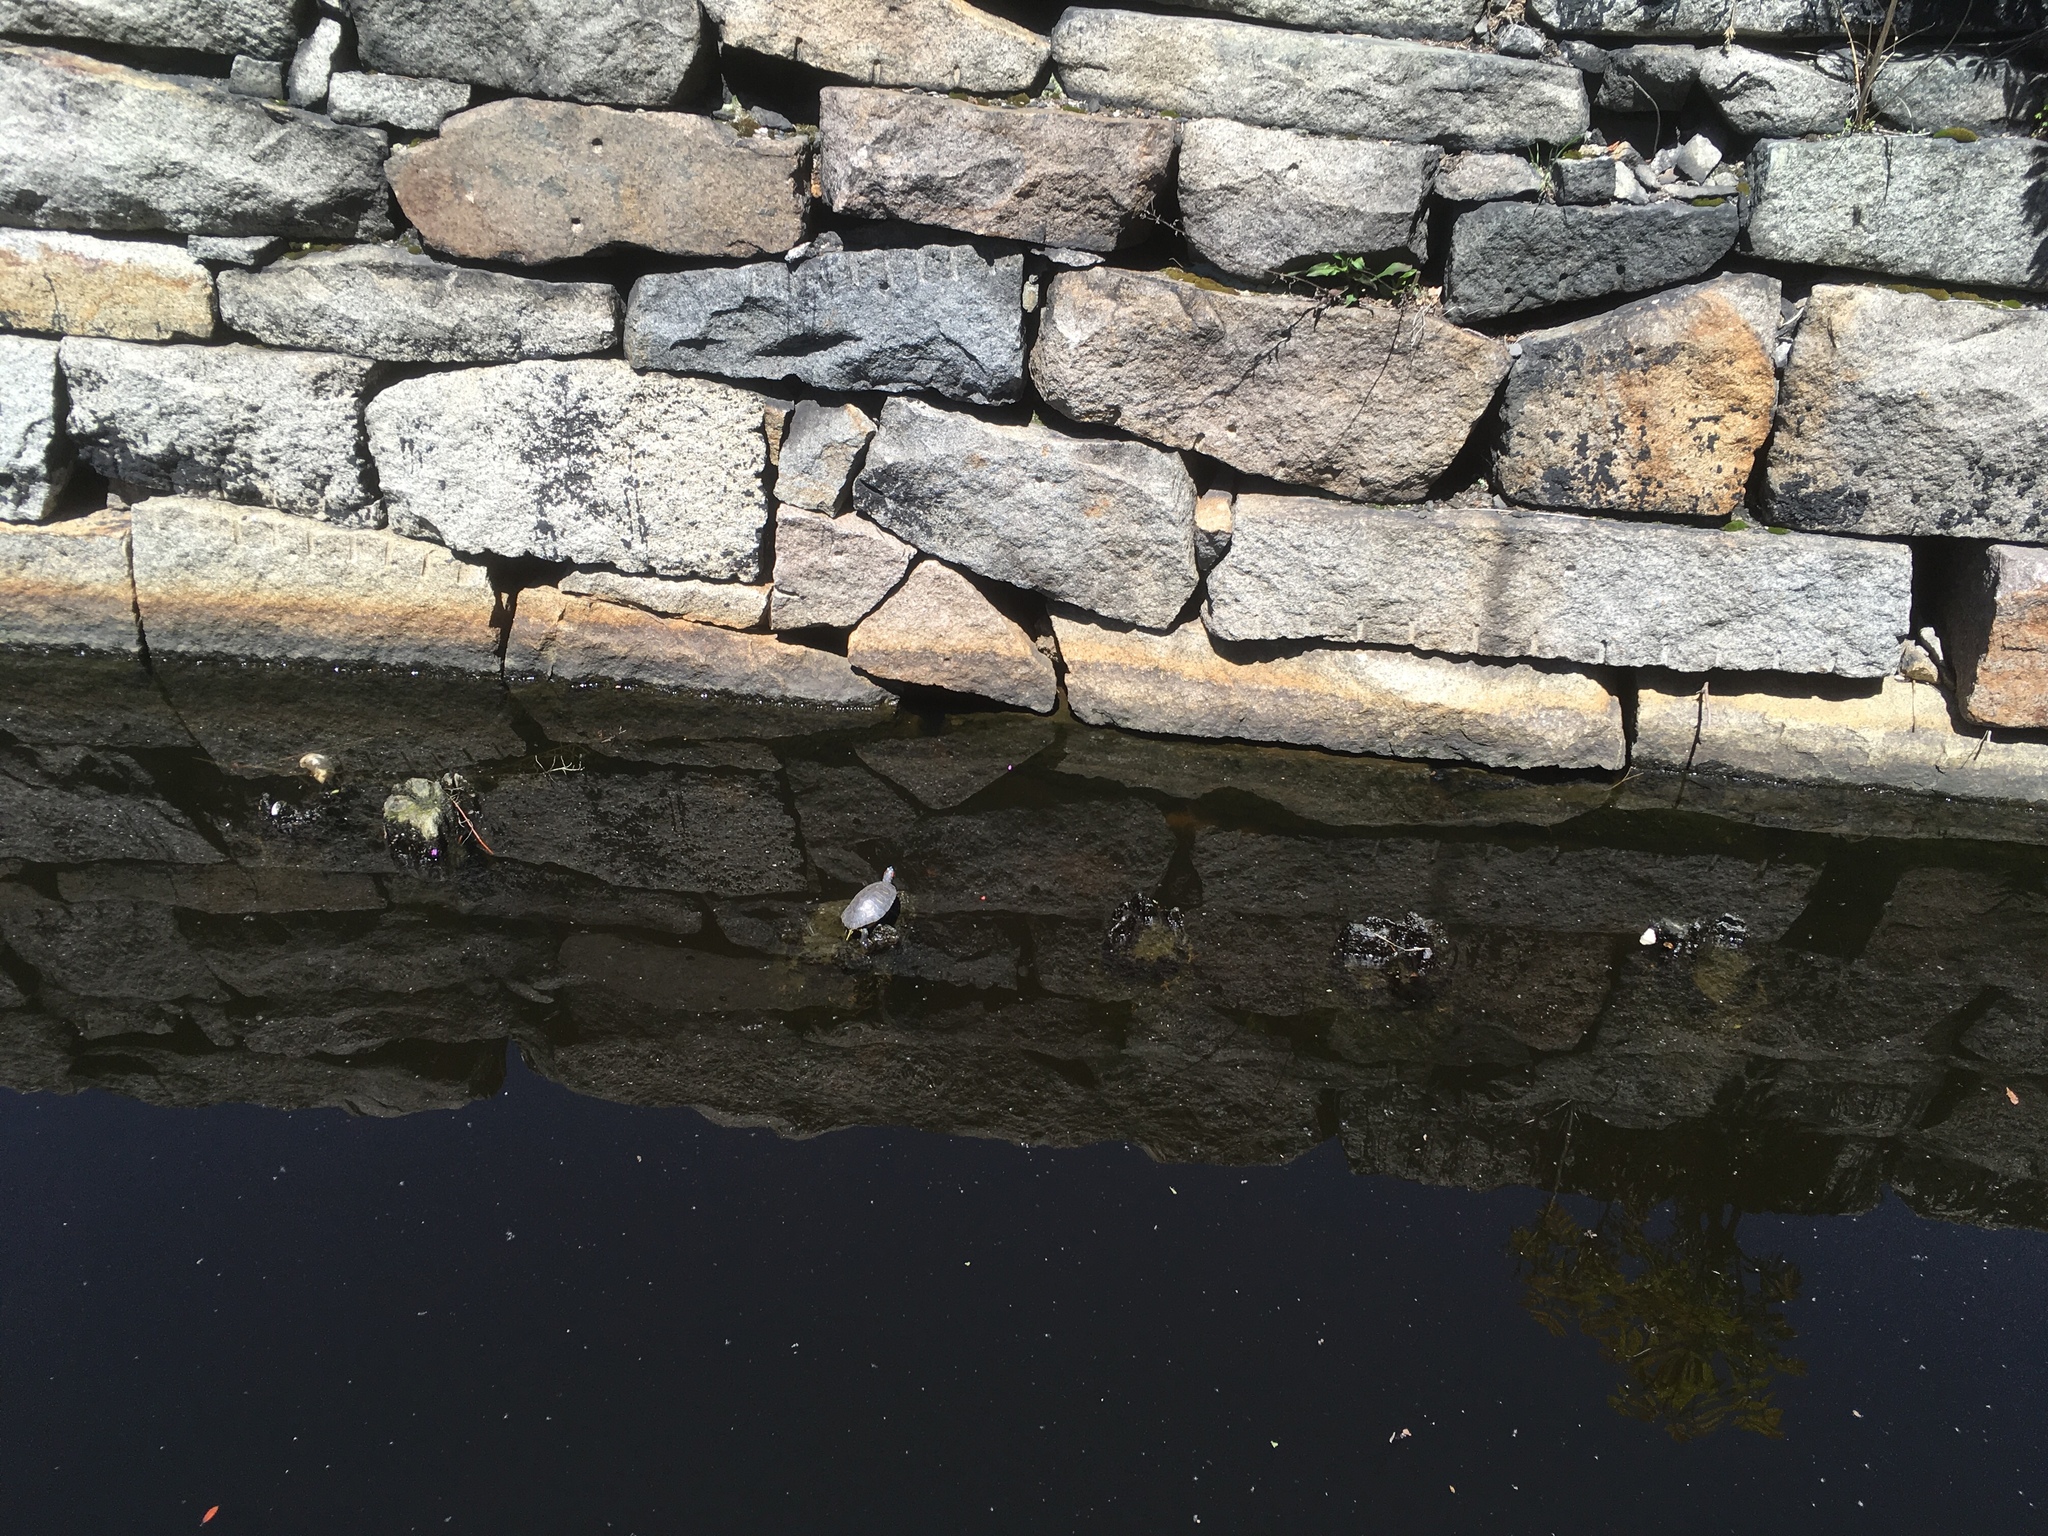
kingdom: Animalia
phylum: Chordata
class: Testudines
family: Emydidae
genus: Trachemys
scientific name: Trachemys scripta
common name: Slider
